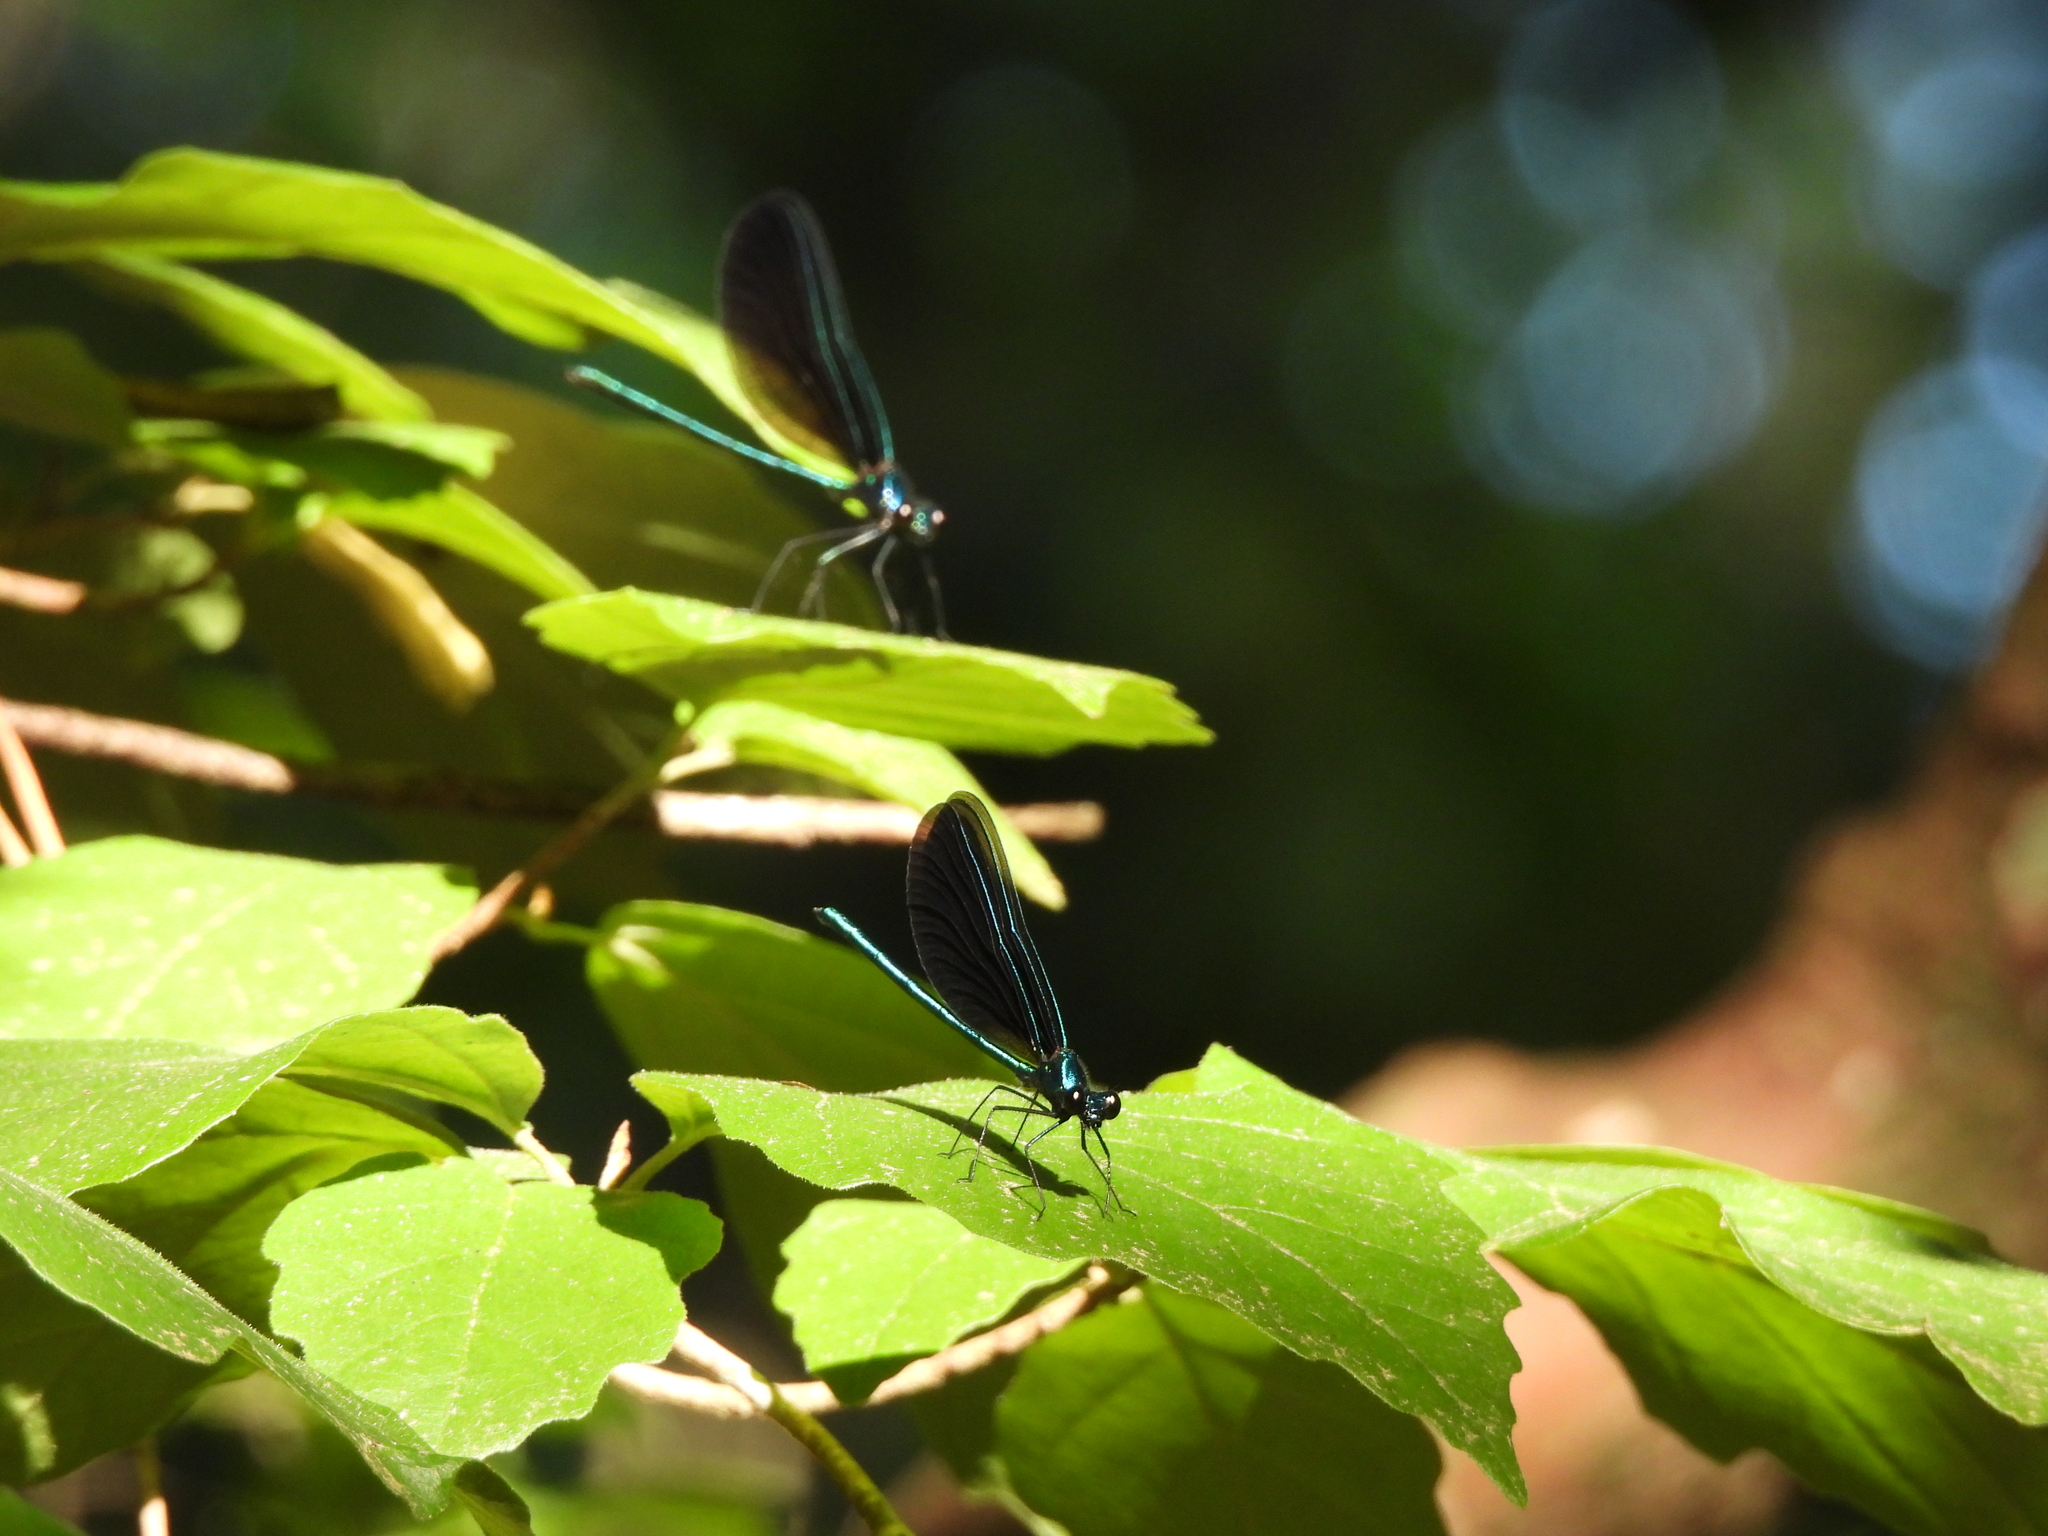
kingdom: Animalia
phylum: Arthropoda
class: Insecta
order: Odonata
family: Calopterygidae
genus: Calopteryx
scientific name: Calopteryx maculata
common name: Ebony jewelwing
